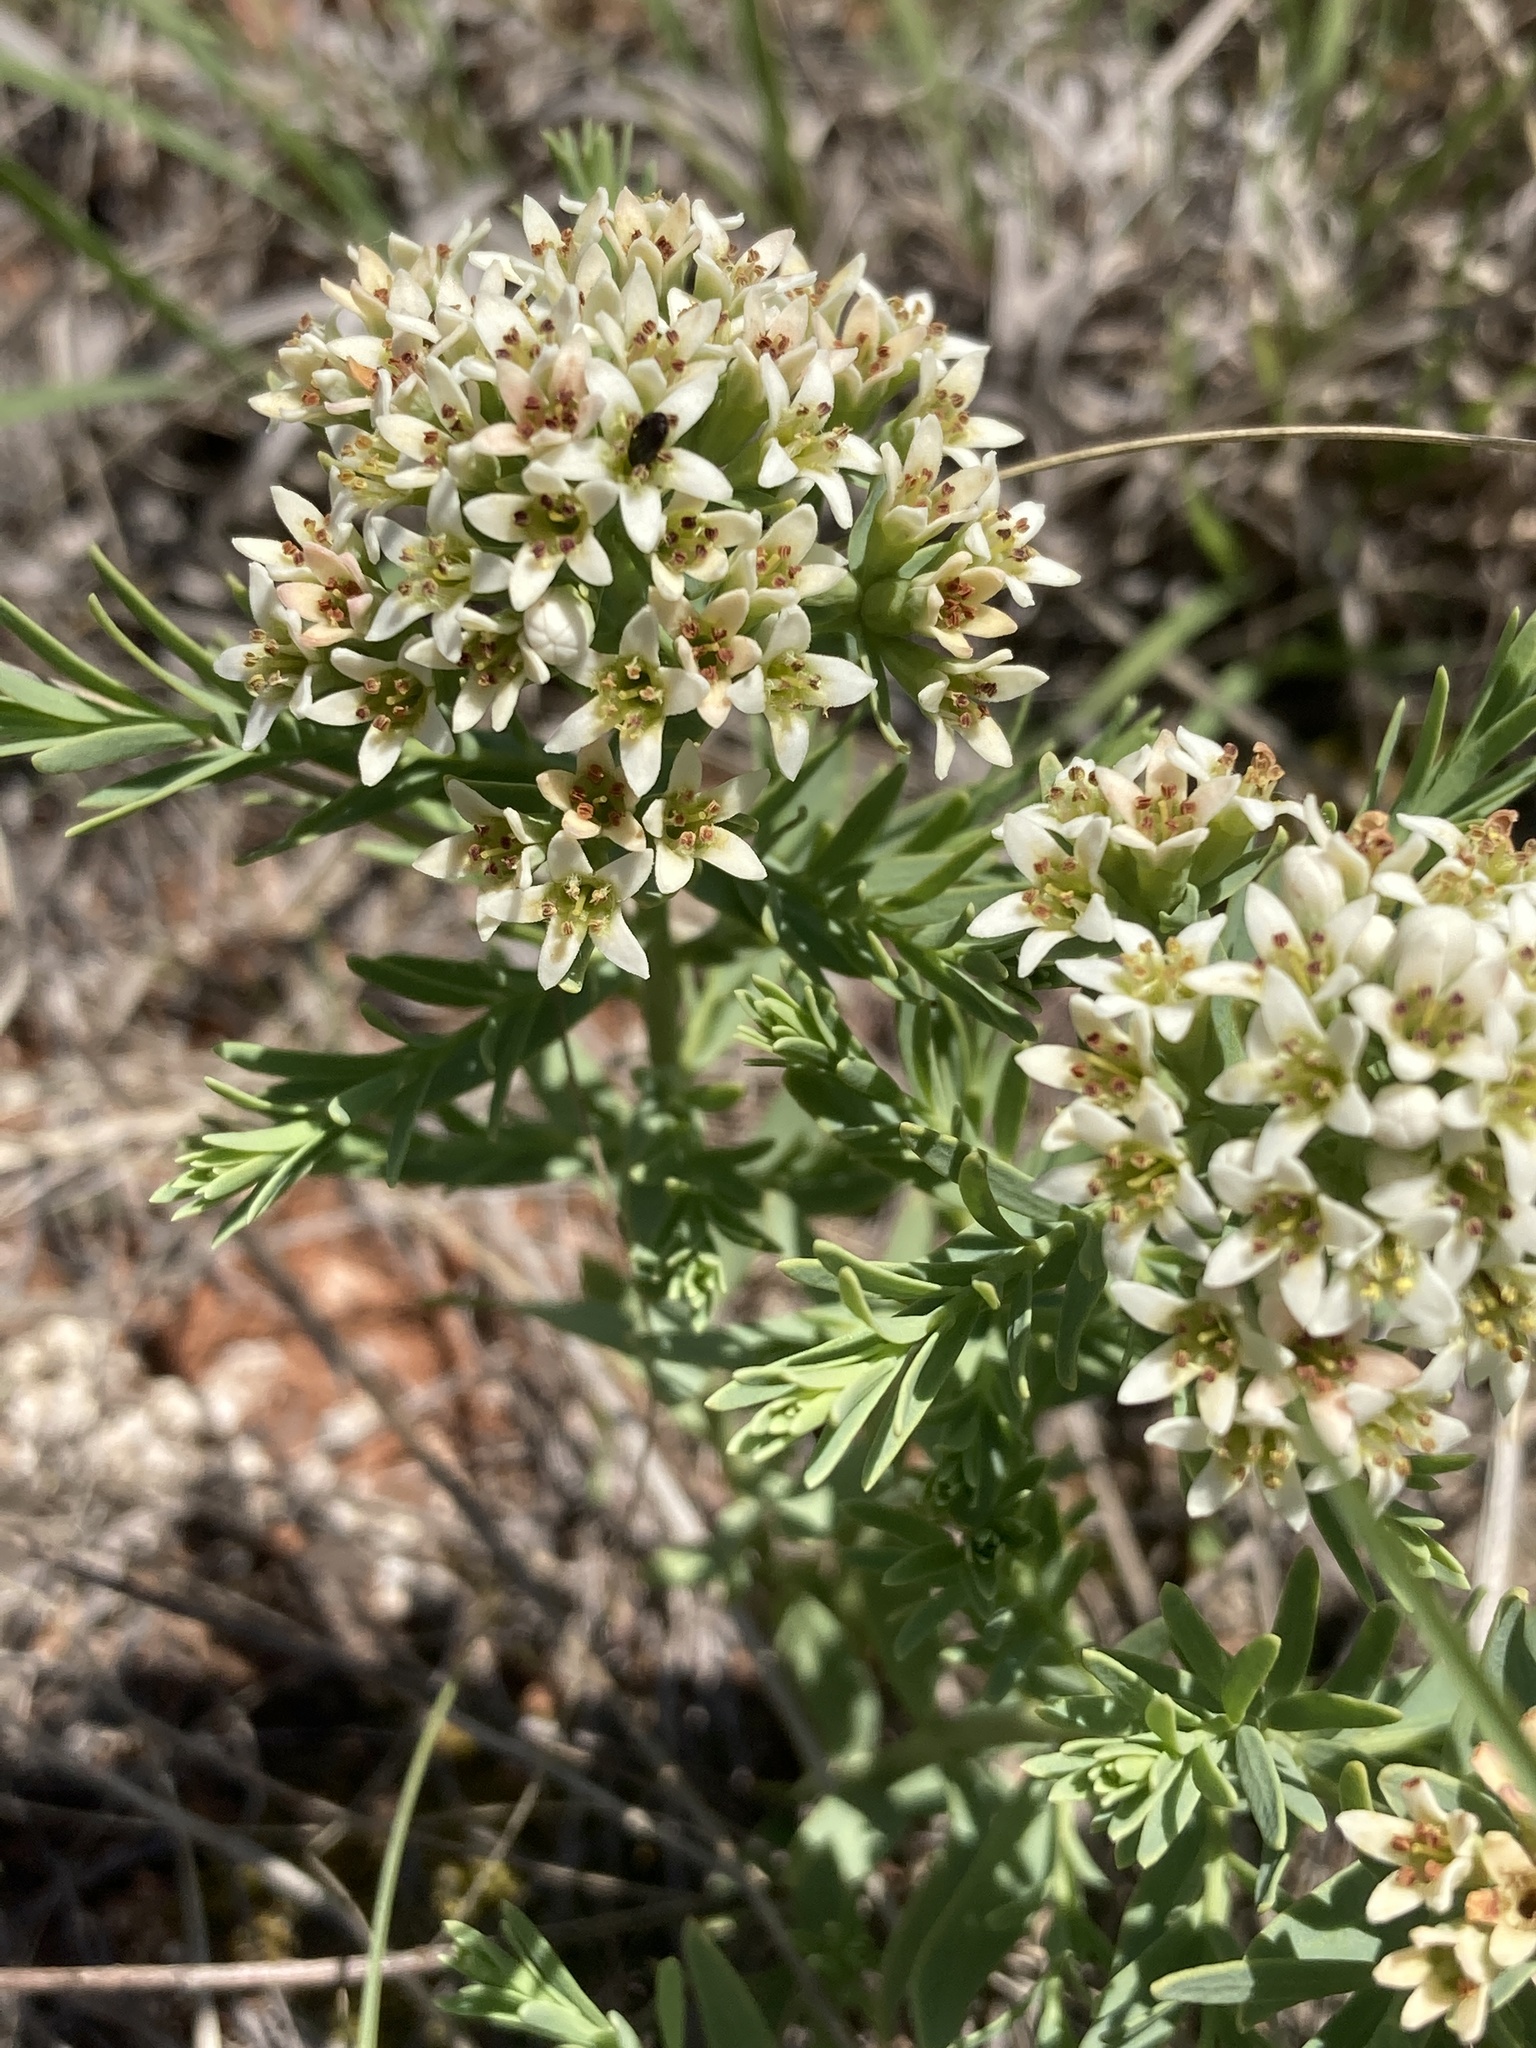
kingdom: Plantae
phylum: Tracheophyta
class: Magnoliopsida
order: Santalales
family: Comandraceae
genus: Comandra
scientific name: Comandra umbellata
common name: Bastard toadflax
